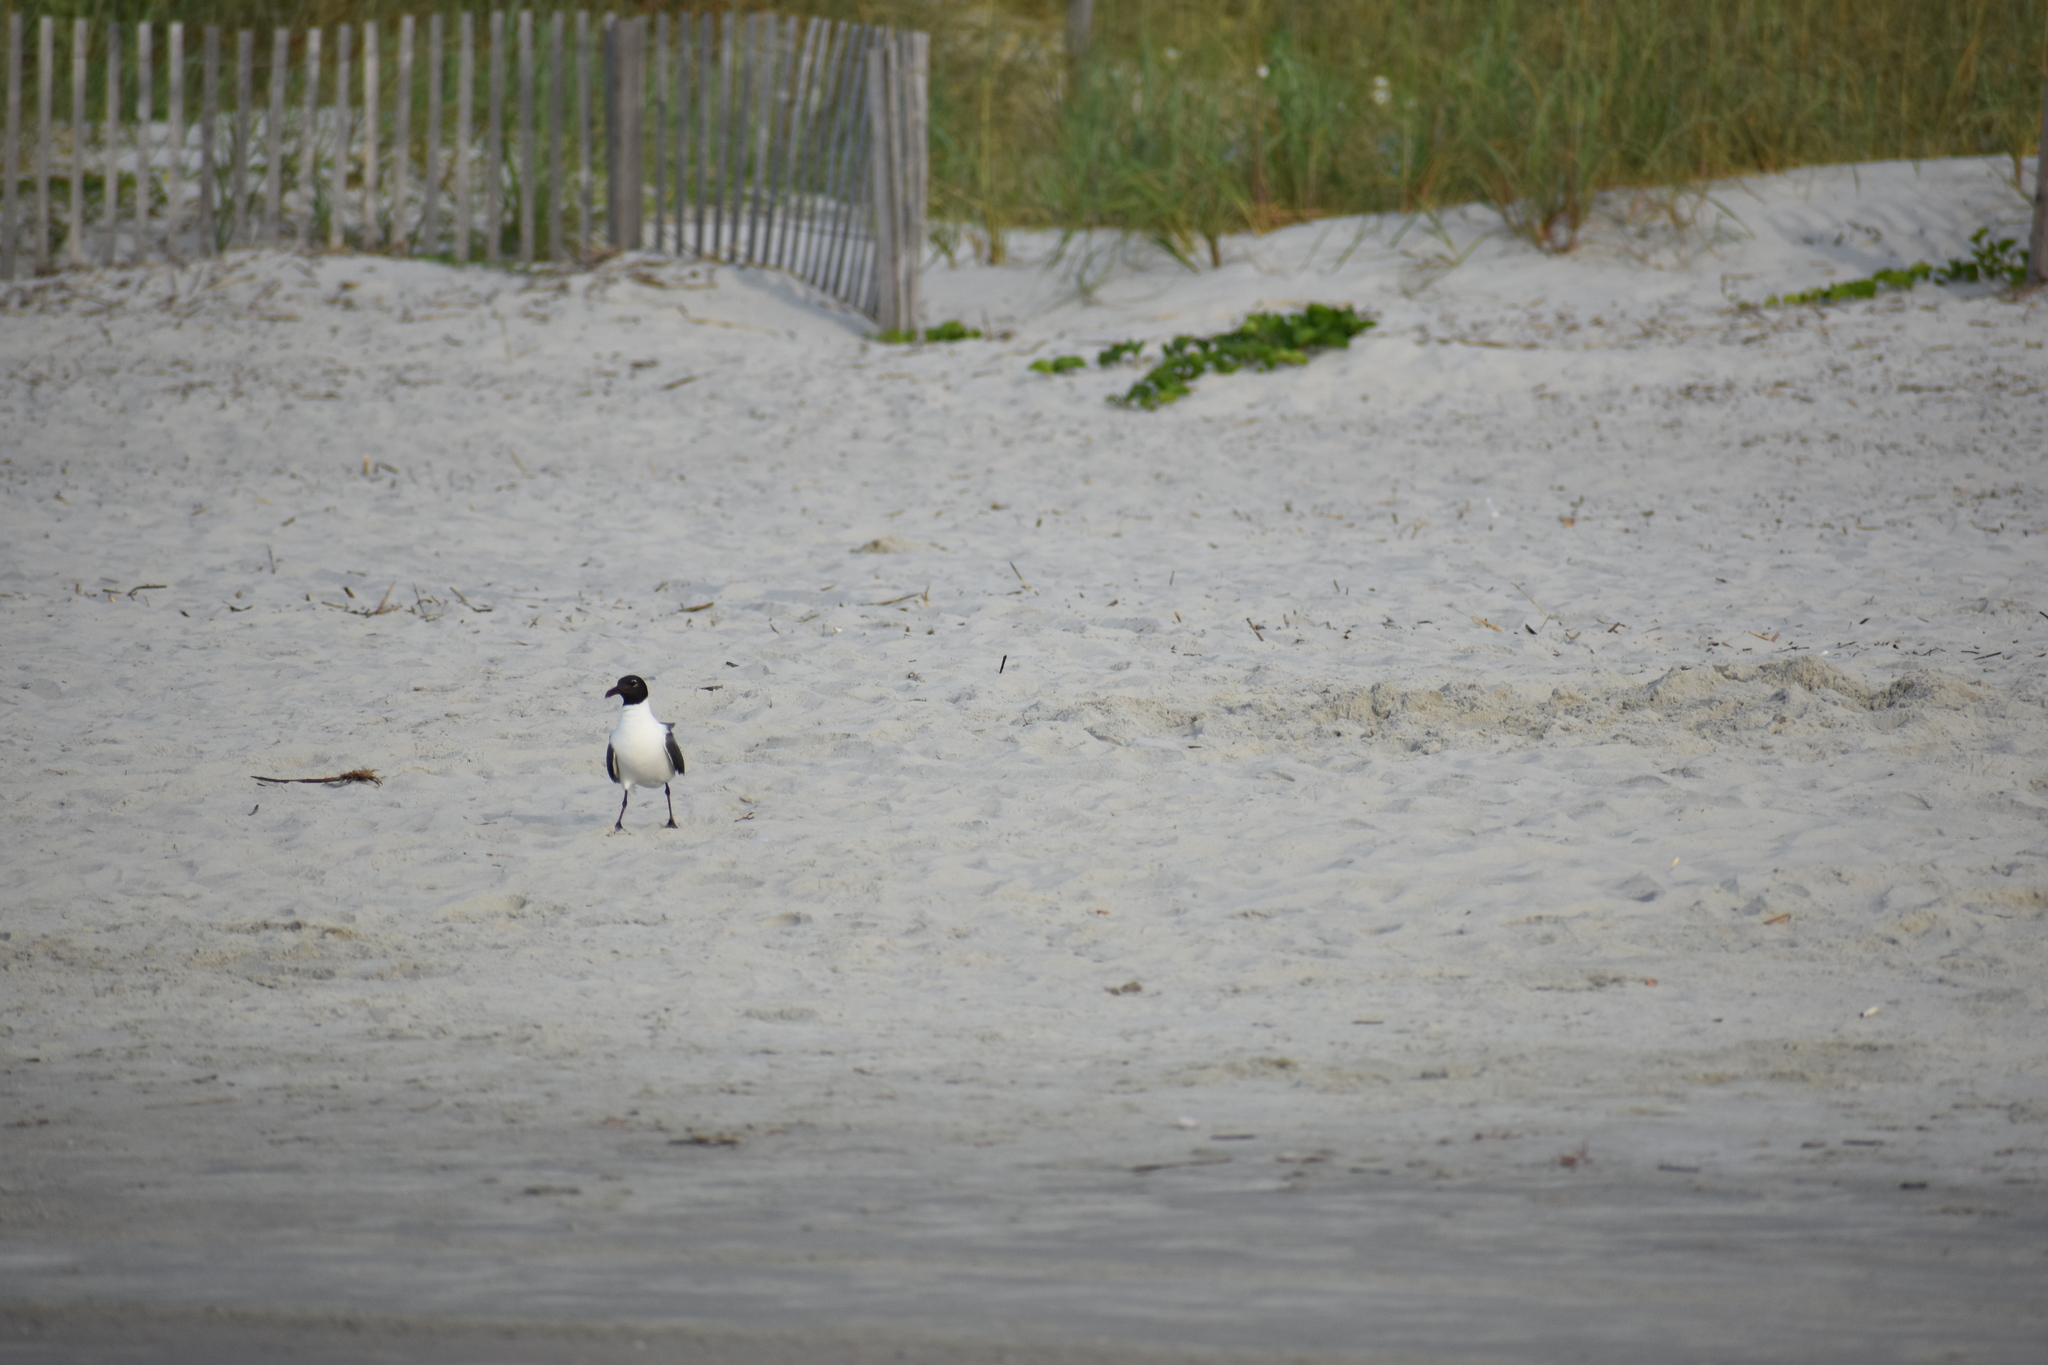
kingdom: Animalia
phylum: Chordata
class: Aves
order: Charadriiformes
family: Laridae
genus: Leucophaeus
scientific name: Leucophaeus atricilla
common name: Laughing gull
